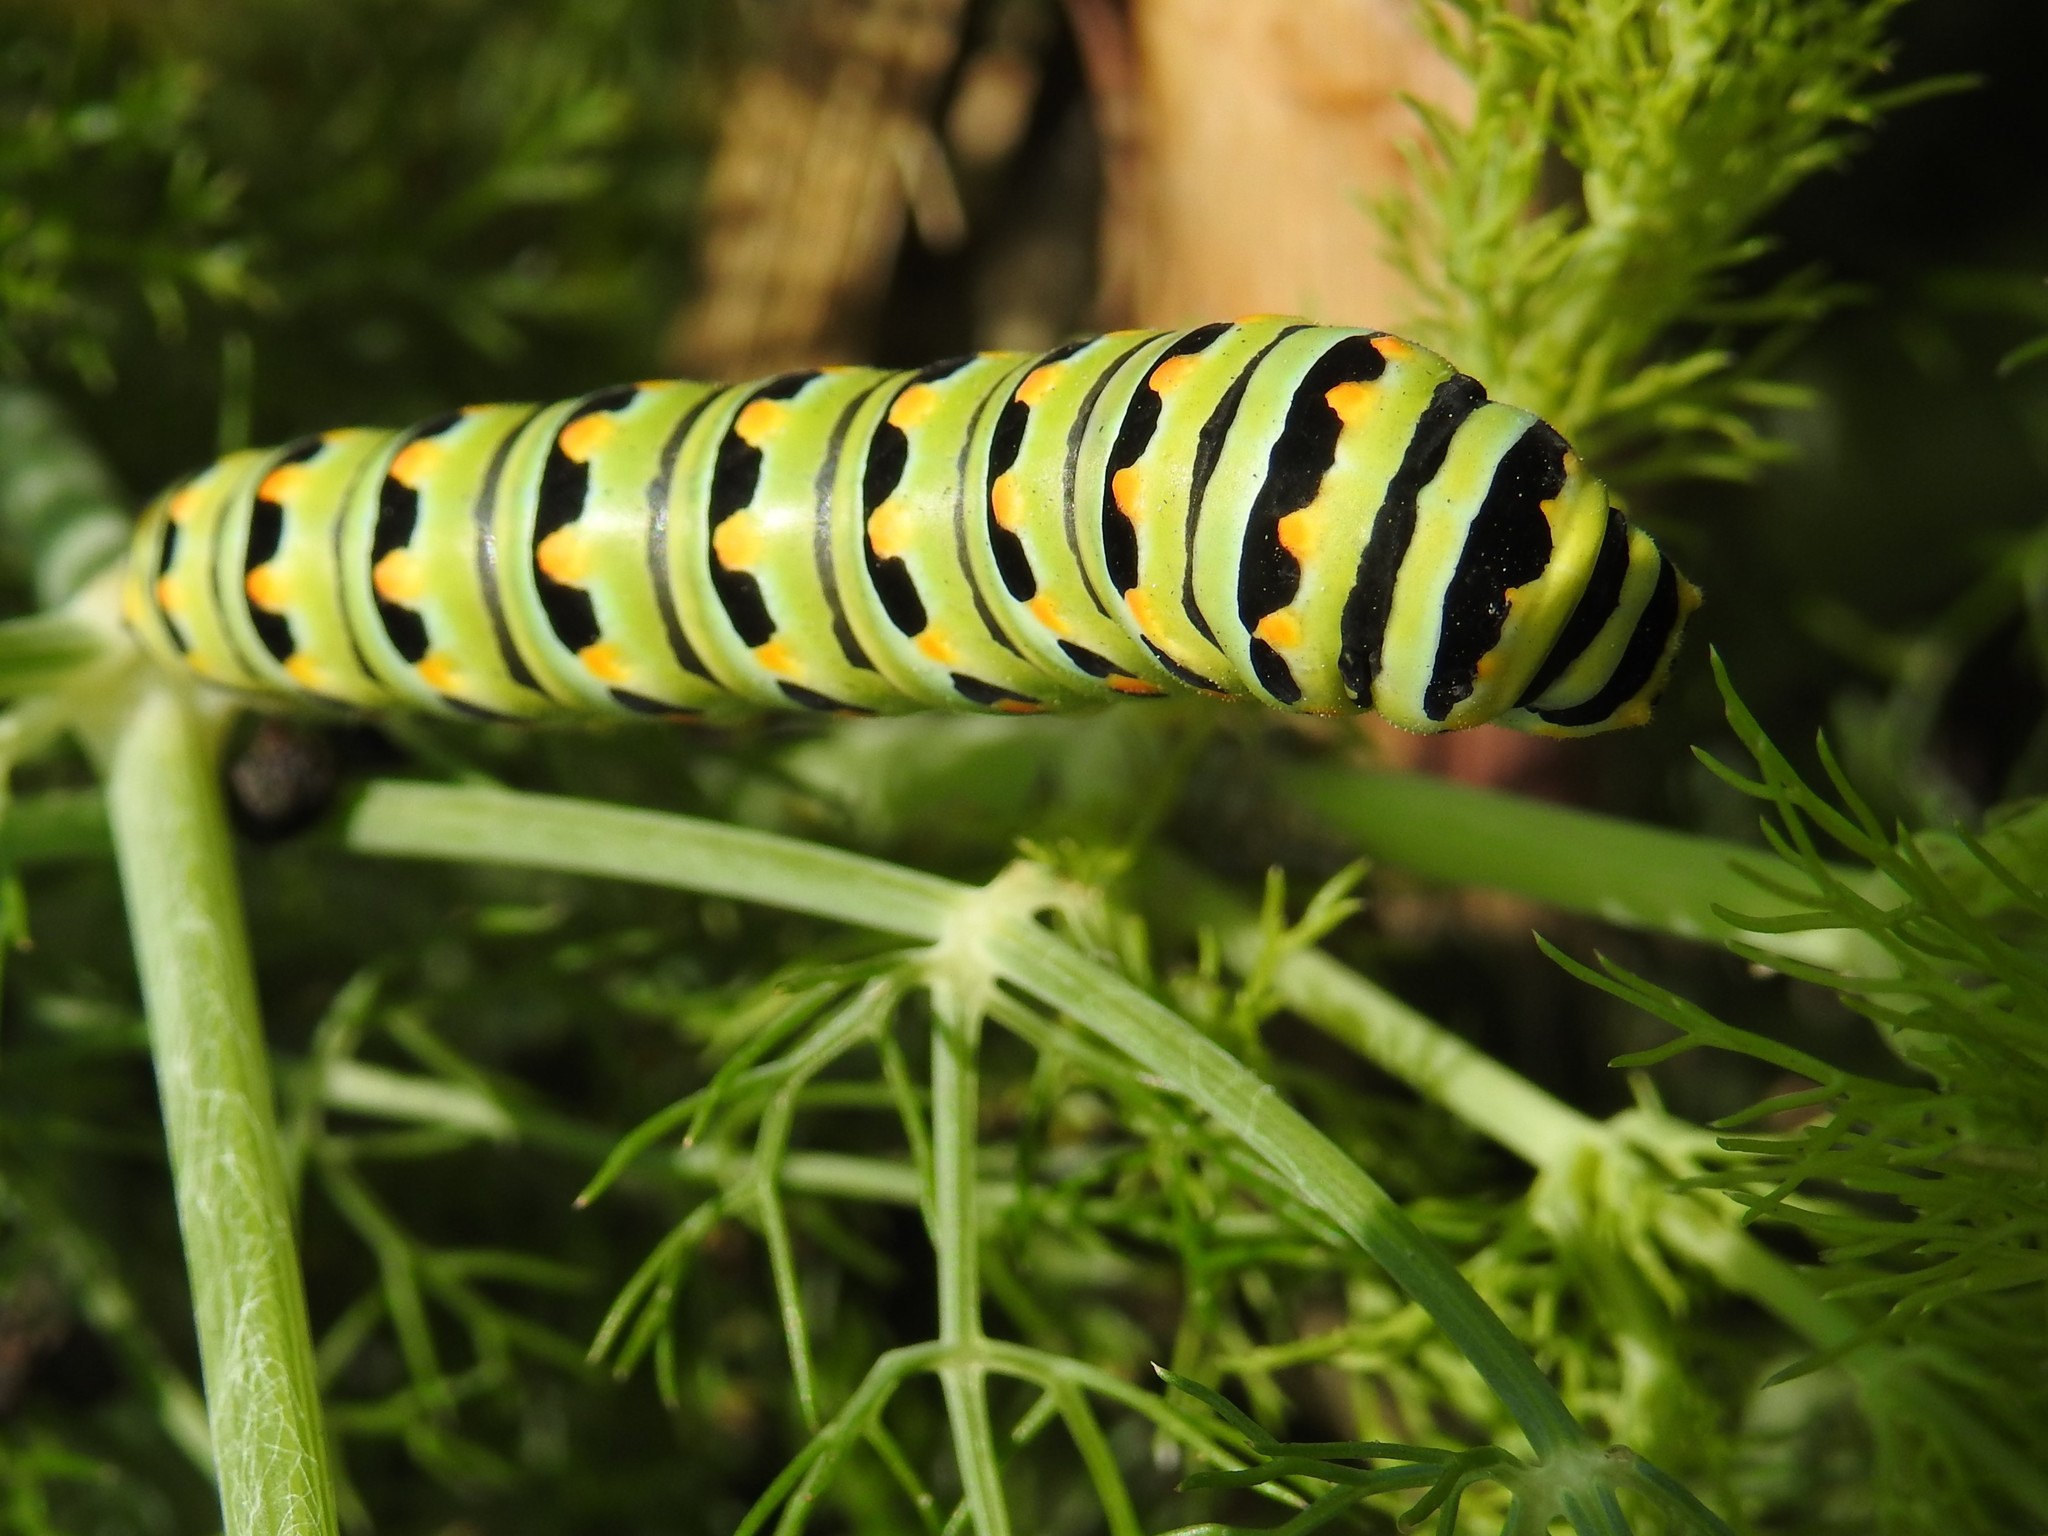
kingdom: Animalia
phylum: Arthropoda
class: Insecta
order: Lepidoptera
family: Papilionidae
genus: Papilio
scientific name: Papilio zelicaon
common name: Anise swallowtail
